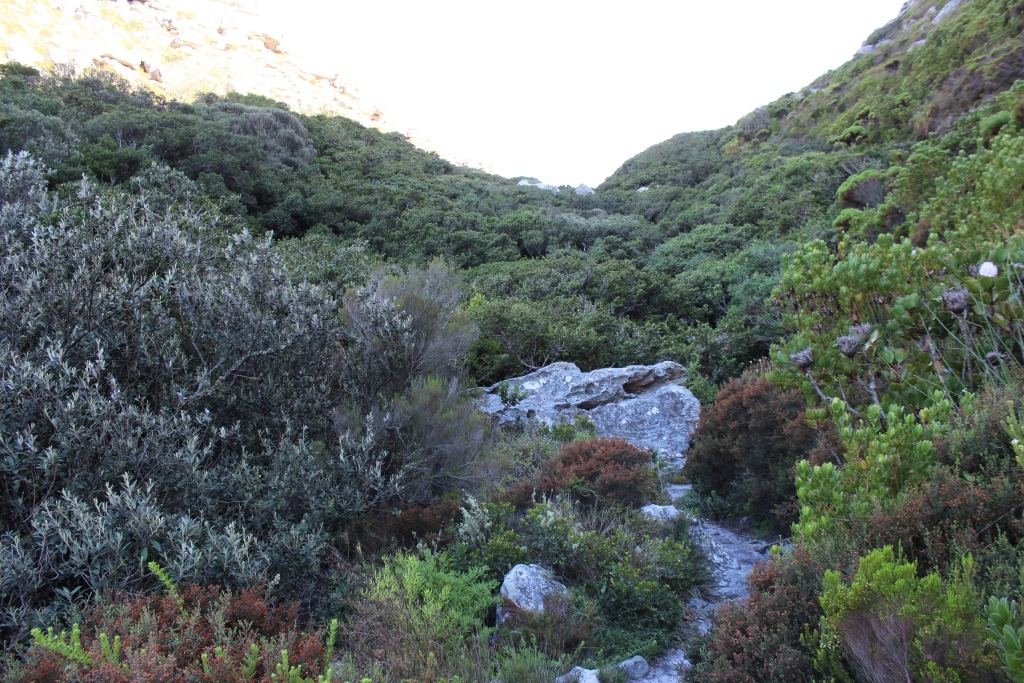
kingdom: Plantae
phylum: Tracheophyta
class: Magnoliopsida
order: Asterales
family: Asteraceae
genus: Tarchonanthus
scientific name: Tarchonanthus littoralis
